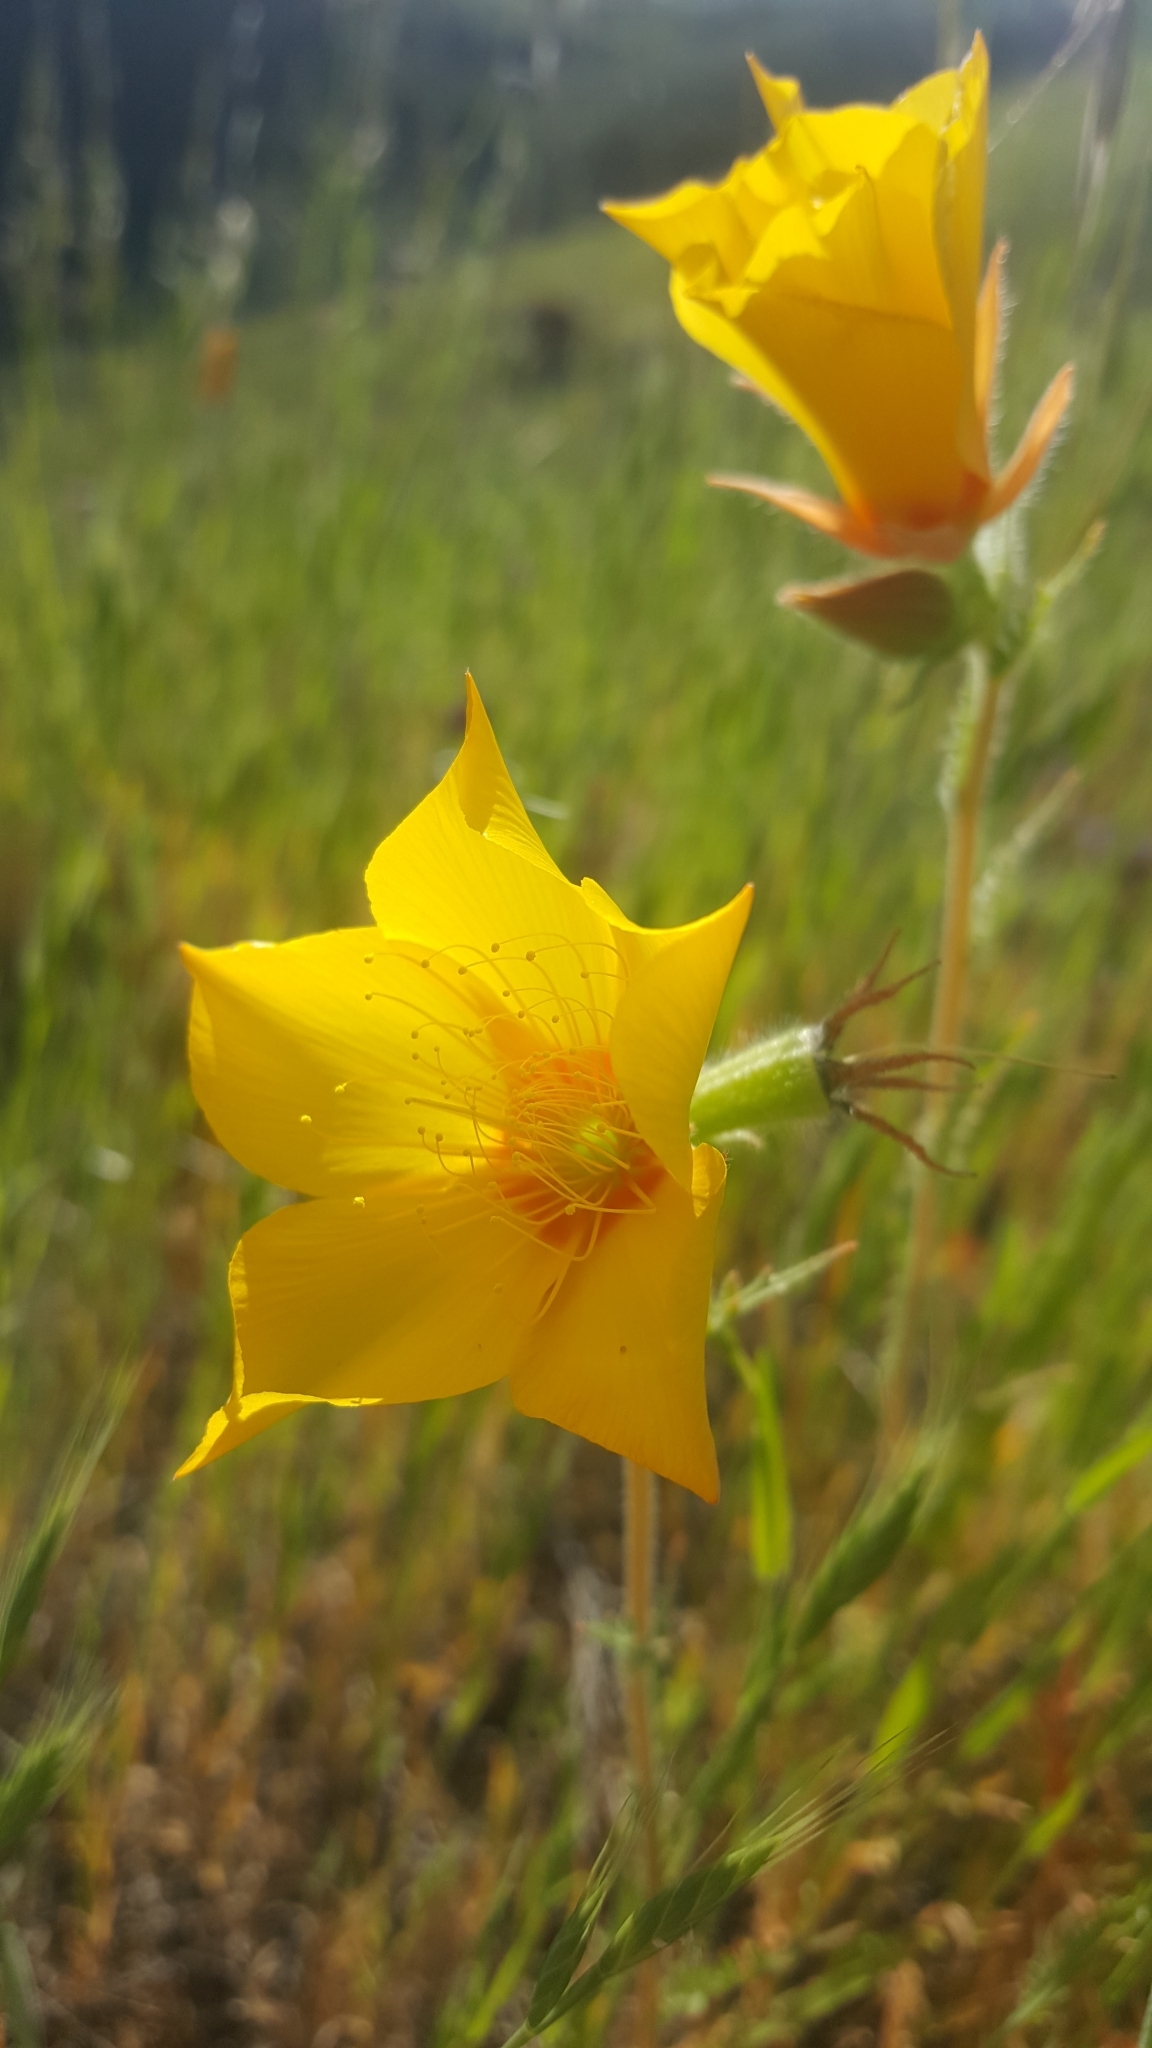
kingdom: Plantae
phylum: Tracheophyta
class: Magnoliopsida
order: Cornales
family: Loasaceae
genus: Mentzelia
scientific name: Mentzelia lindleyi
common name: Golden bartonia
